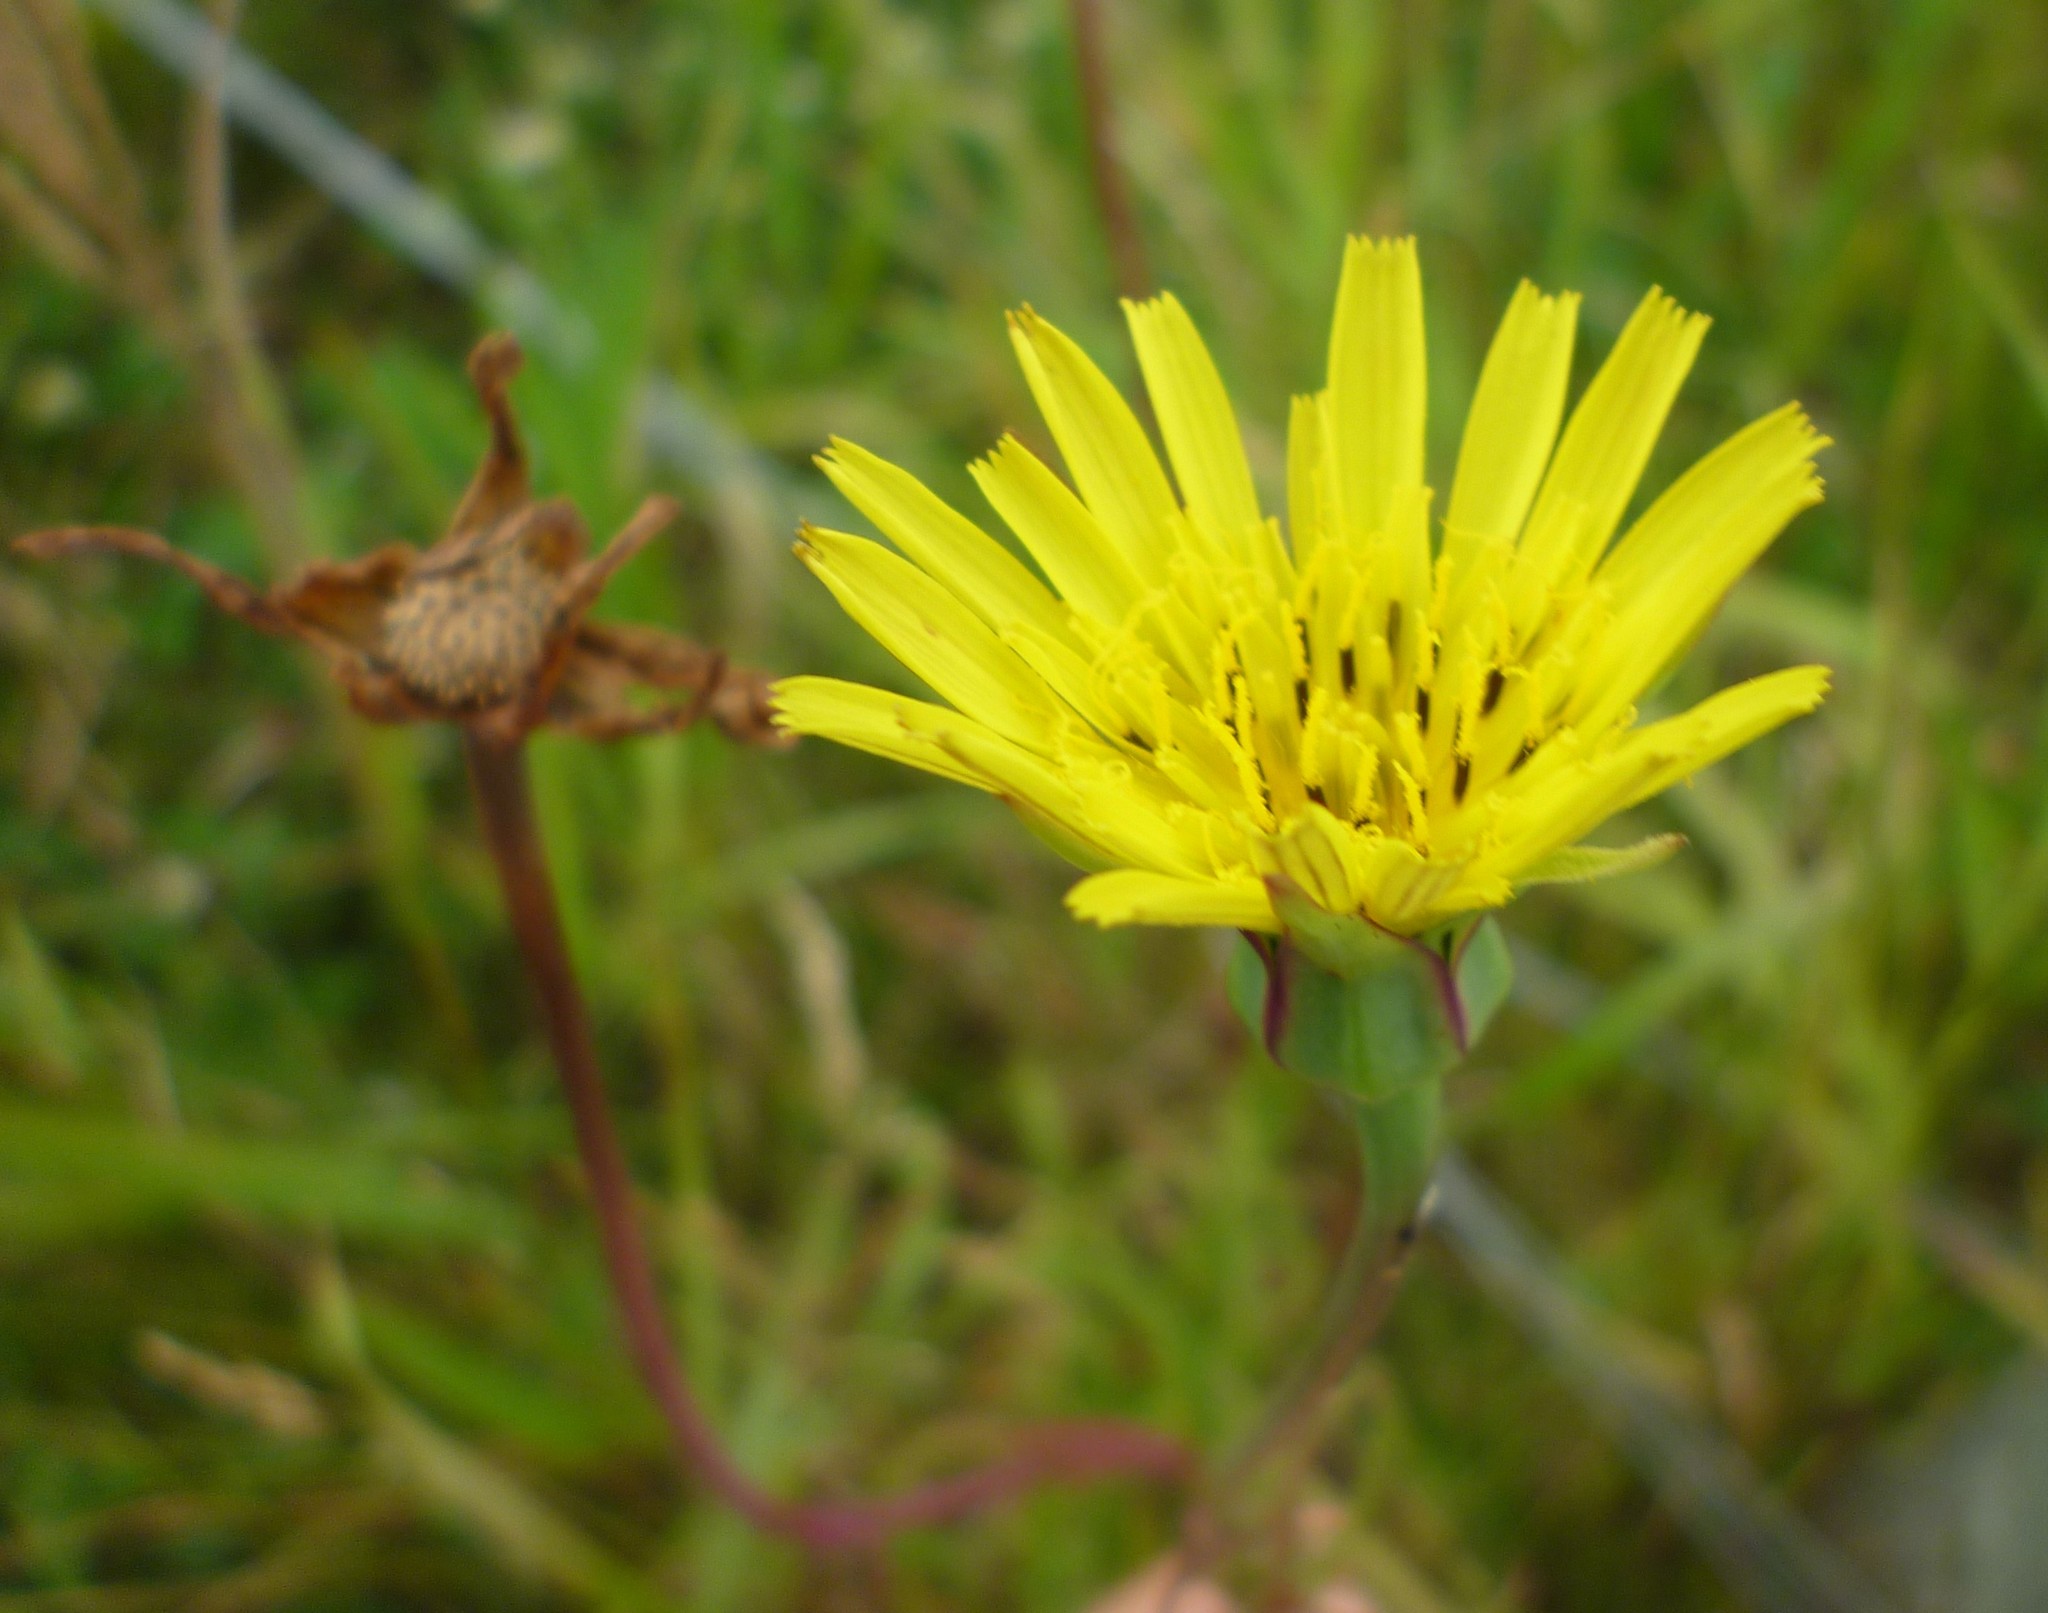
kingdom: Plantae
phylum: Tracheophyta
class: Magnoliopsida
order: Asterales
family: Asteraceae
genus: Tragopogon
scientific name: Tragopogon pratensis
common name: Goat's-beard
